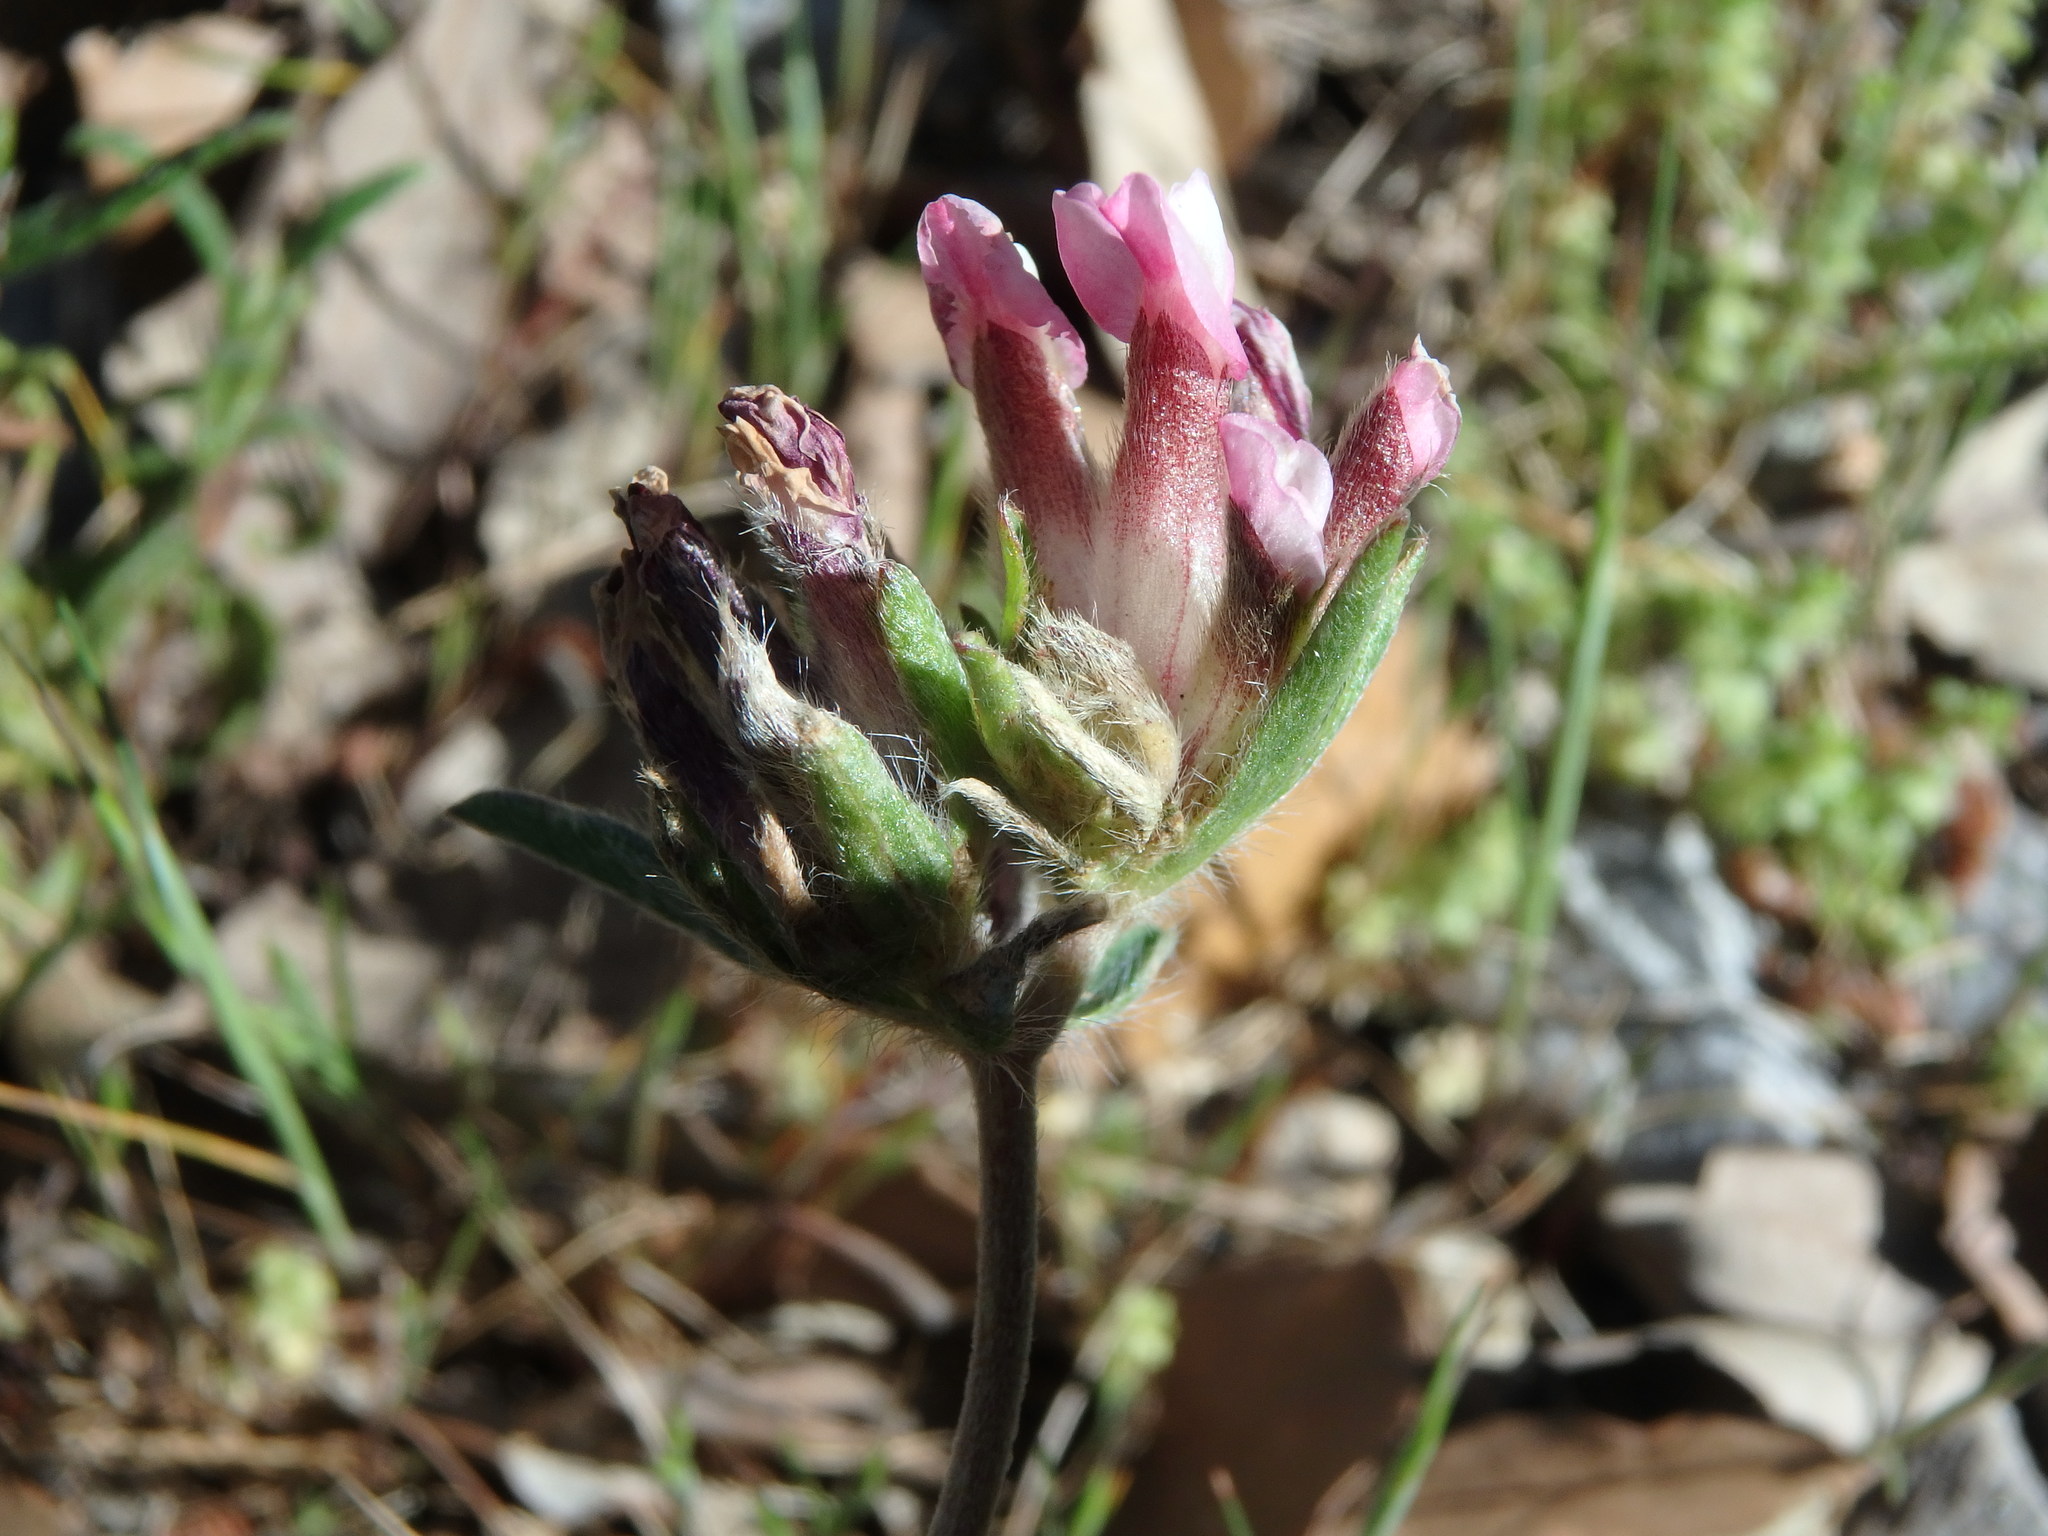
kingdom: Plantae
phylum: Tracheophyta
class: Magnoliopsida
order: Fabales
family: Fabaceae
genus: Anthyllis
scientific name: Anthyllis vulneraria
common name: Kidney vetch
